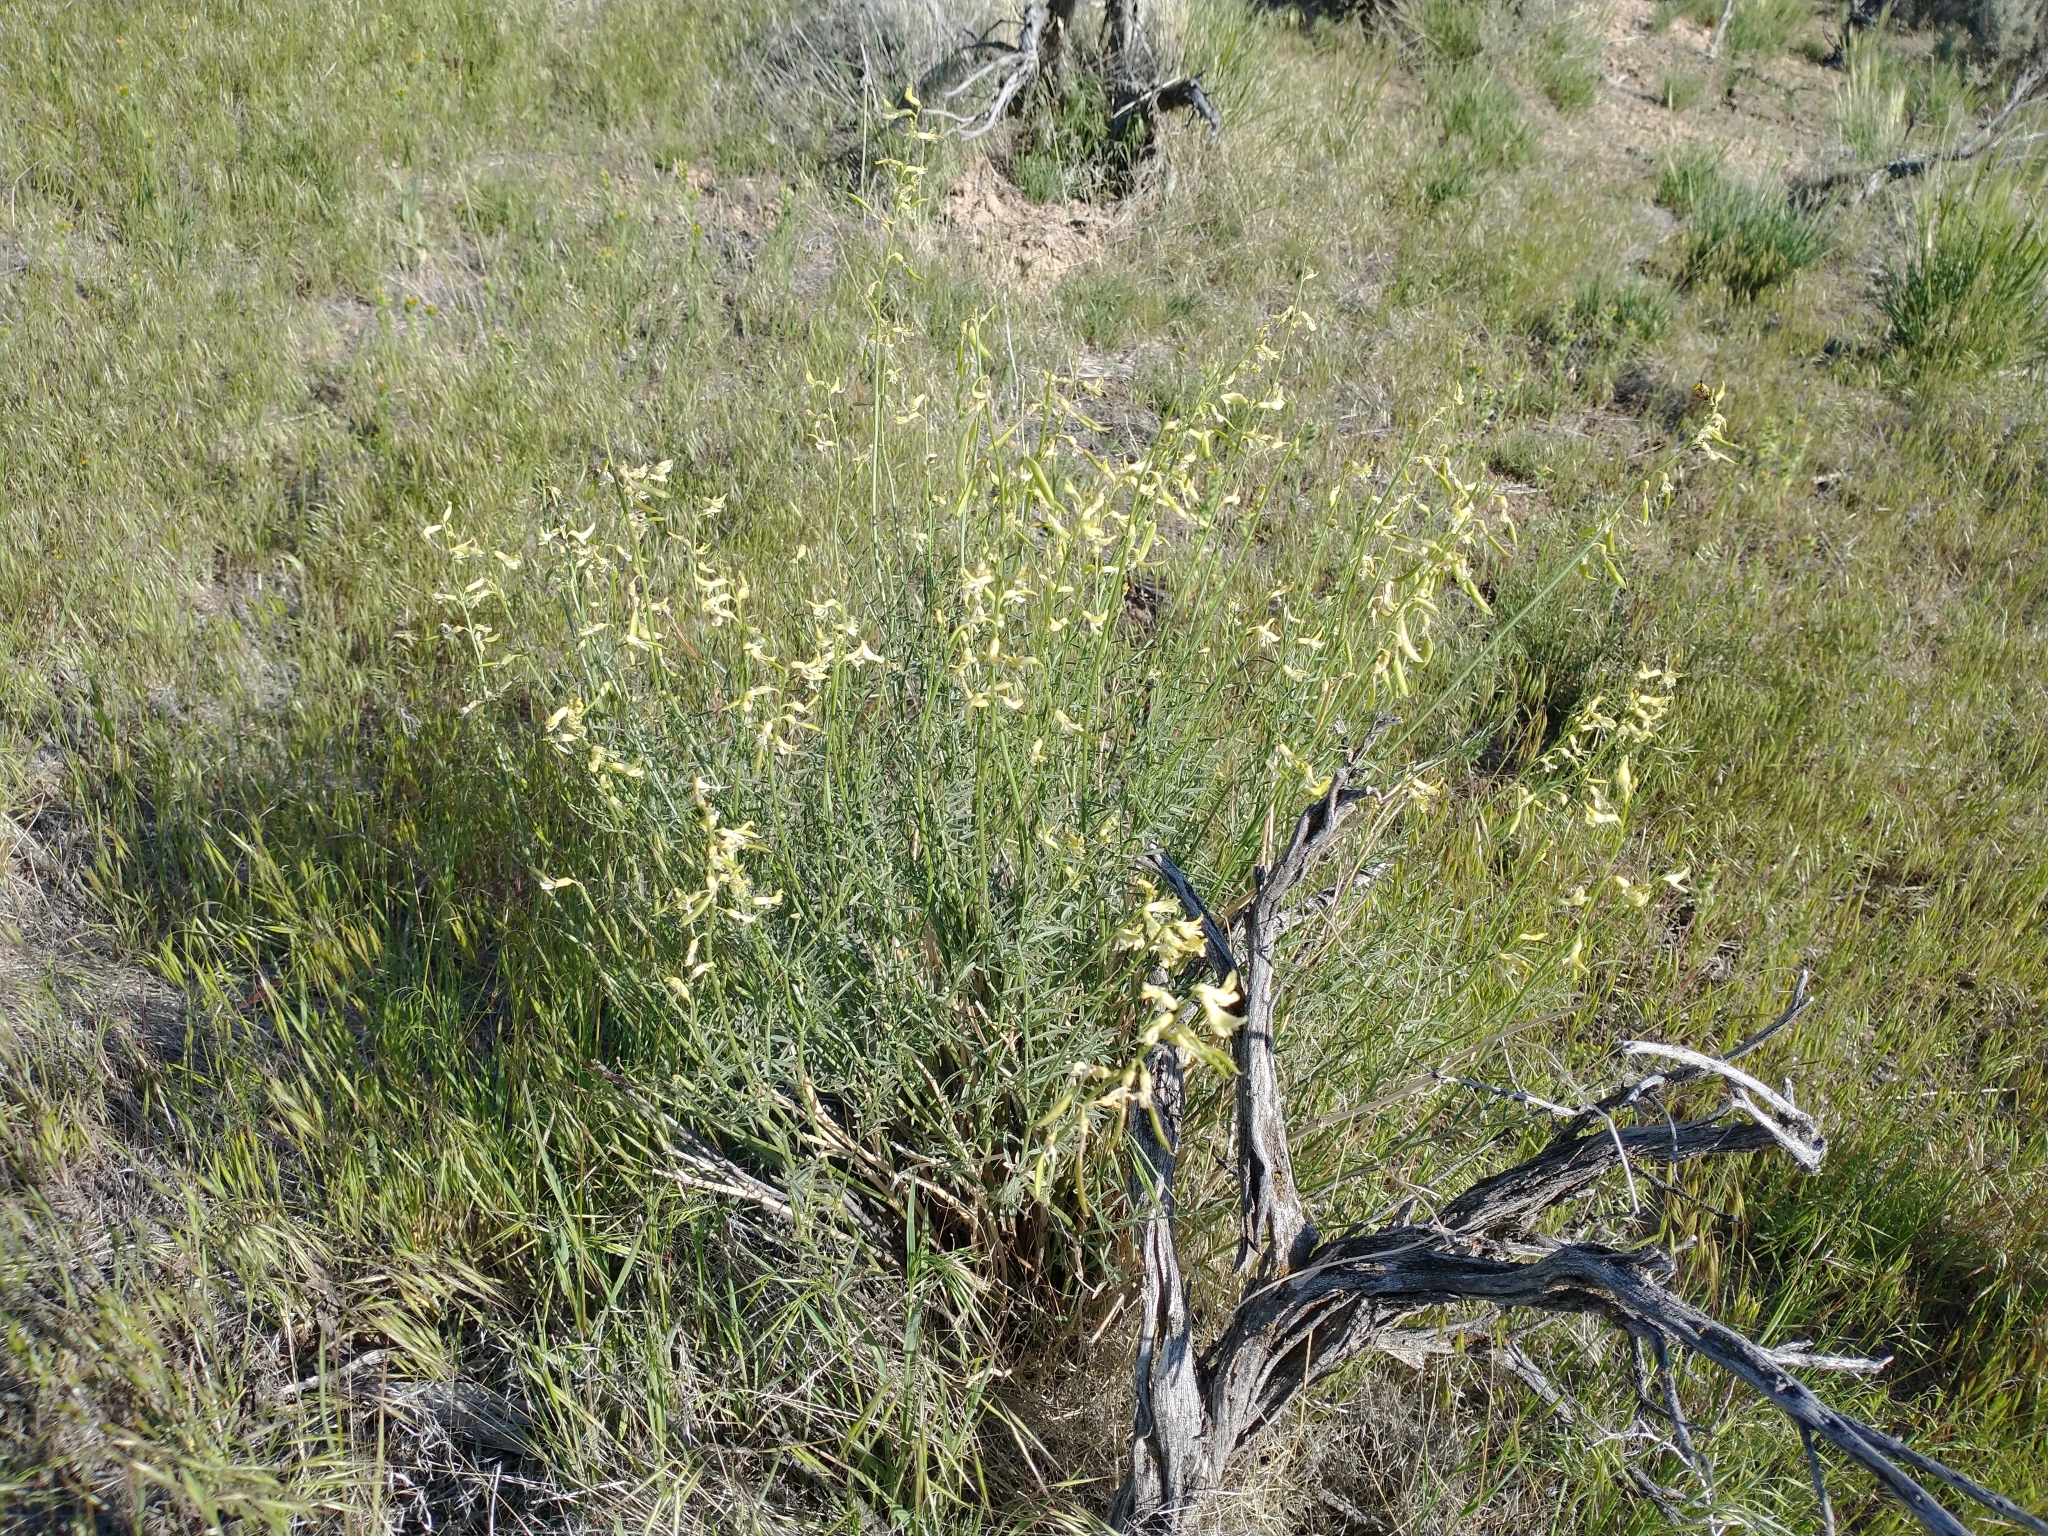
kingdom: Plantae
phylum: Tracheophyta
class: Magnoliopsida
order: Fabales
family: Fabaceae
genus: Astragalus
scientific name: Astragalus filipes
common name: Basalt milk-vetch
